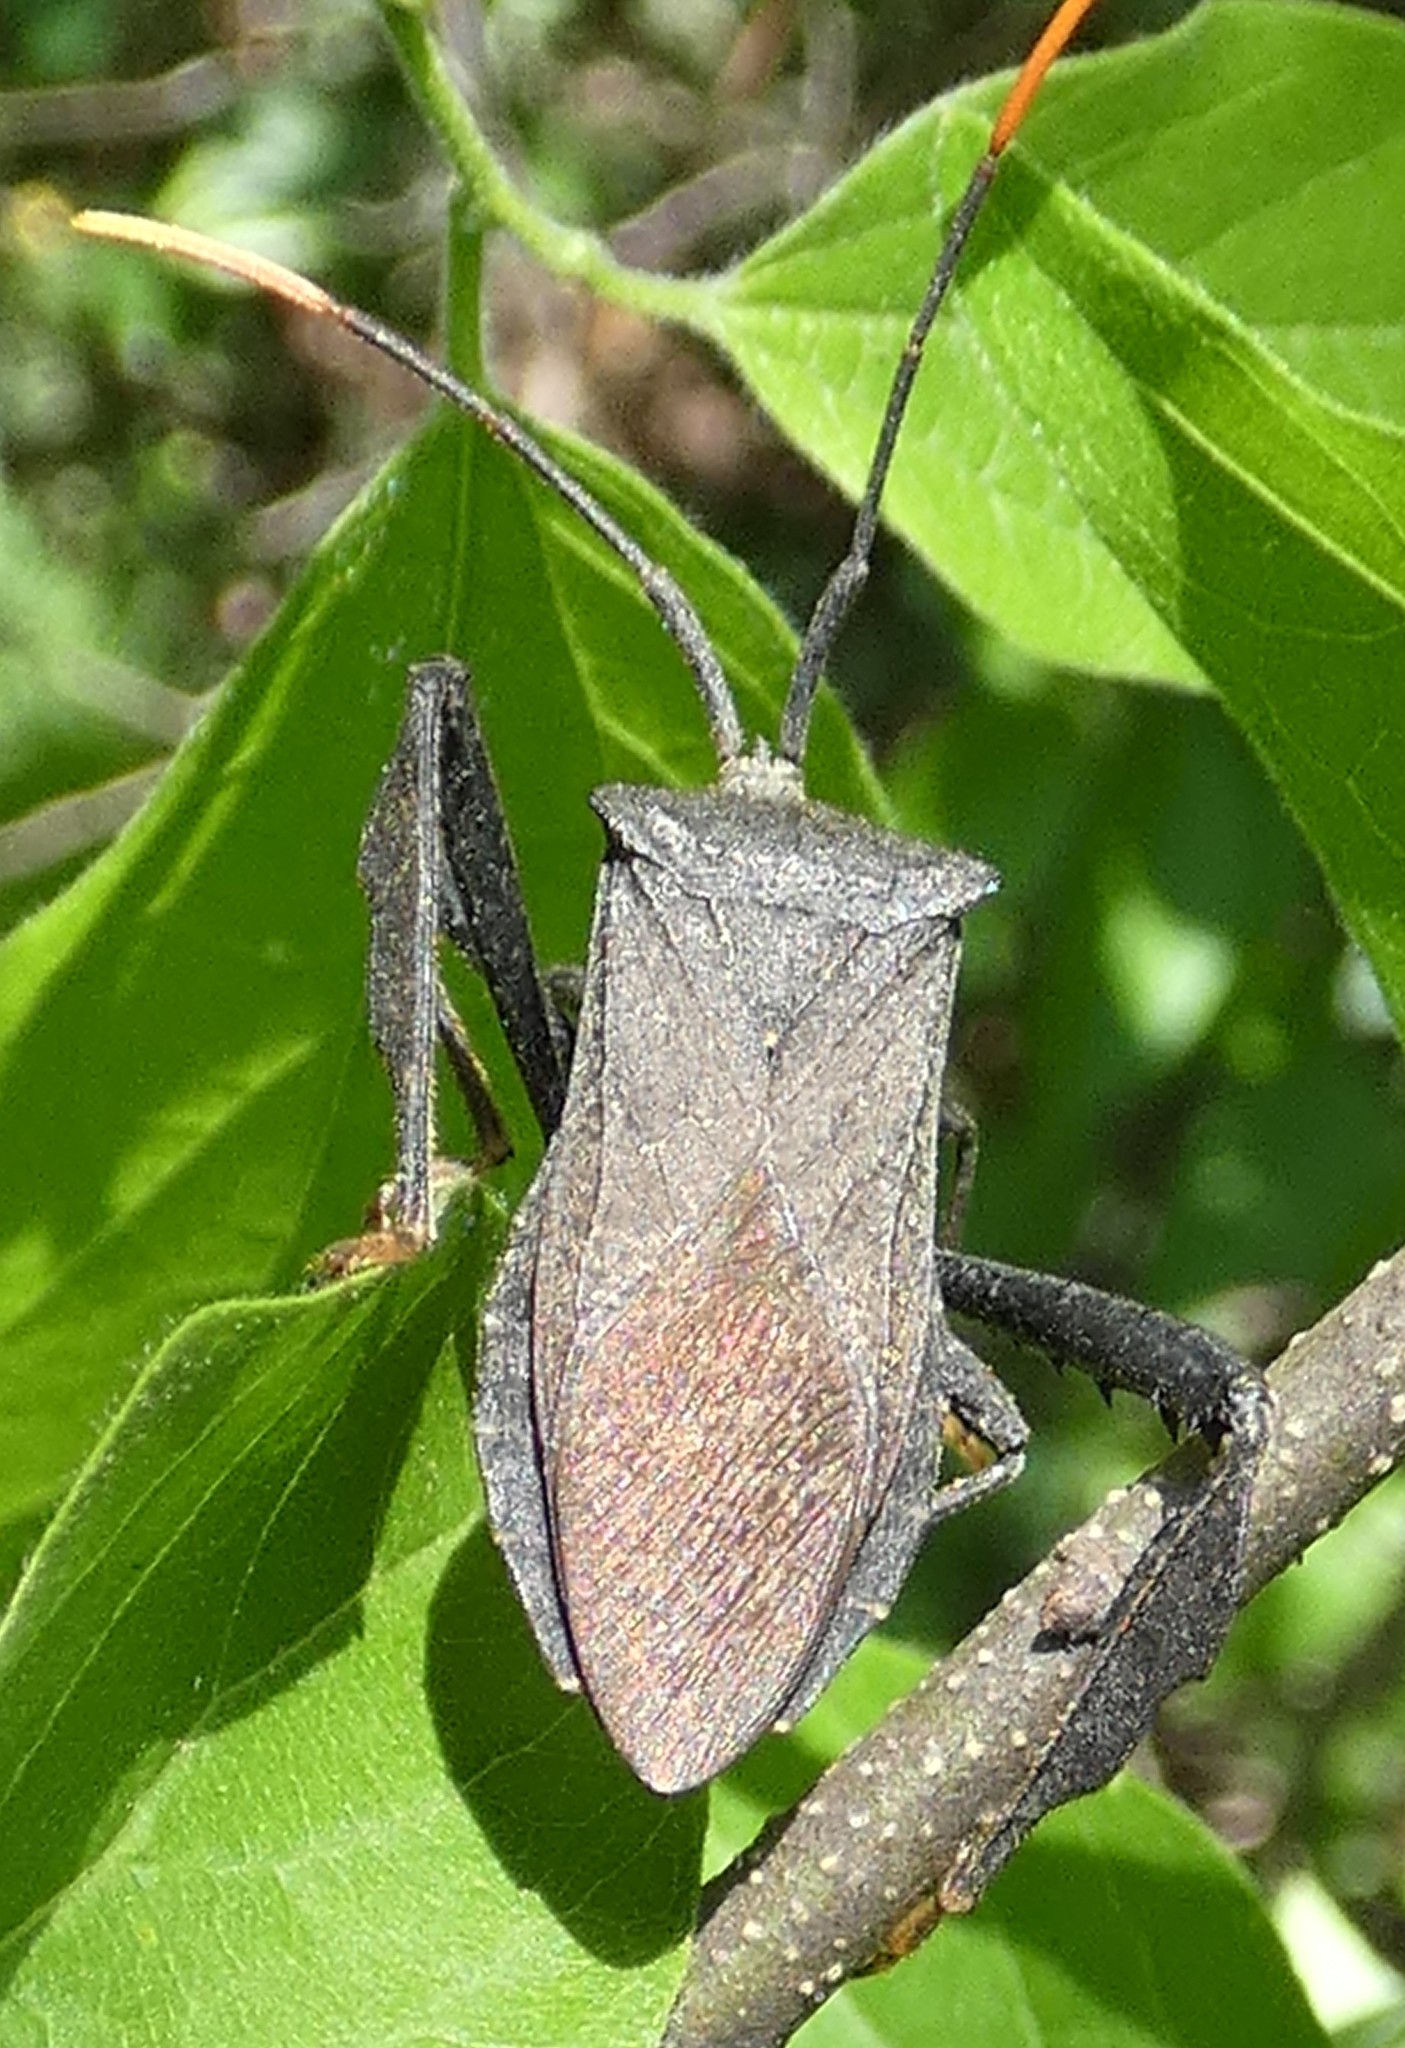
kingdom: Animalia
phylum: Arthropoda
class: Insecta
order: Hemiptera
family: Coreidae
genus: Acanthocephala
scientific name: Acanthocephala terminalis
